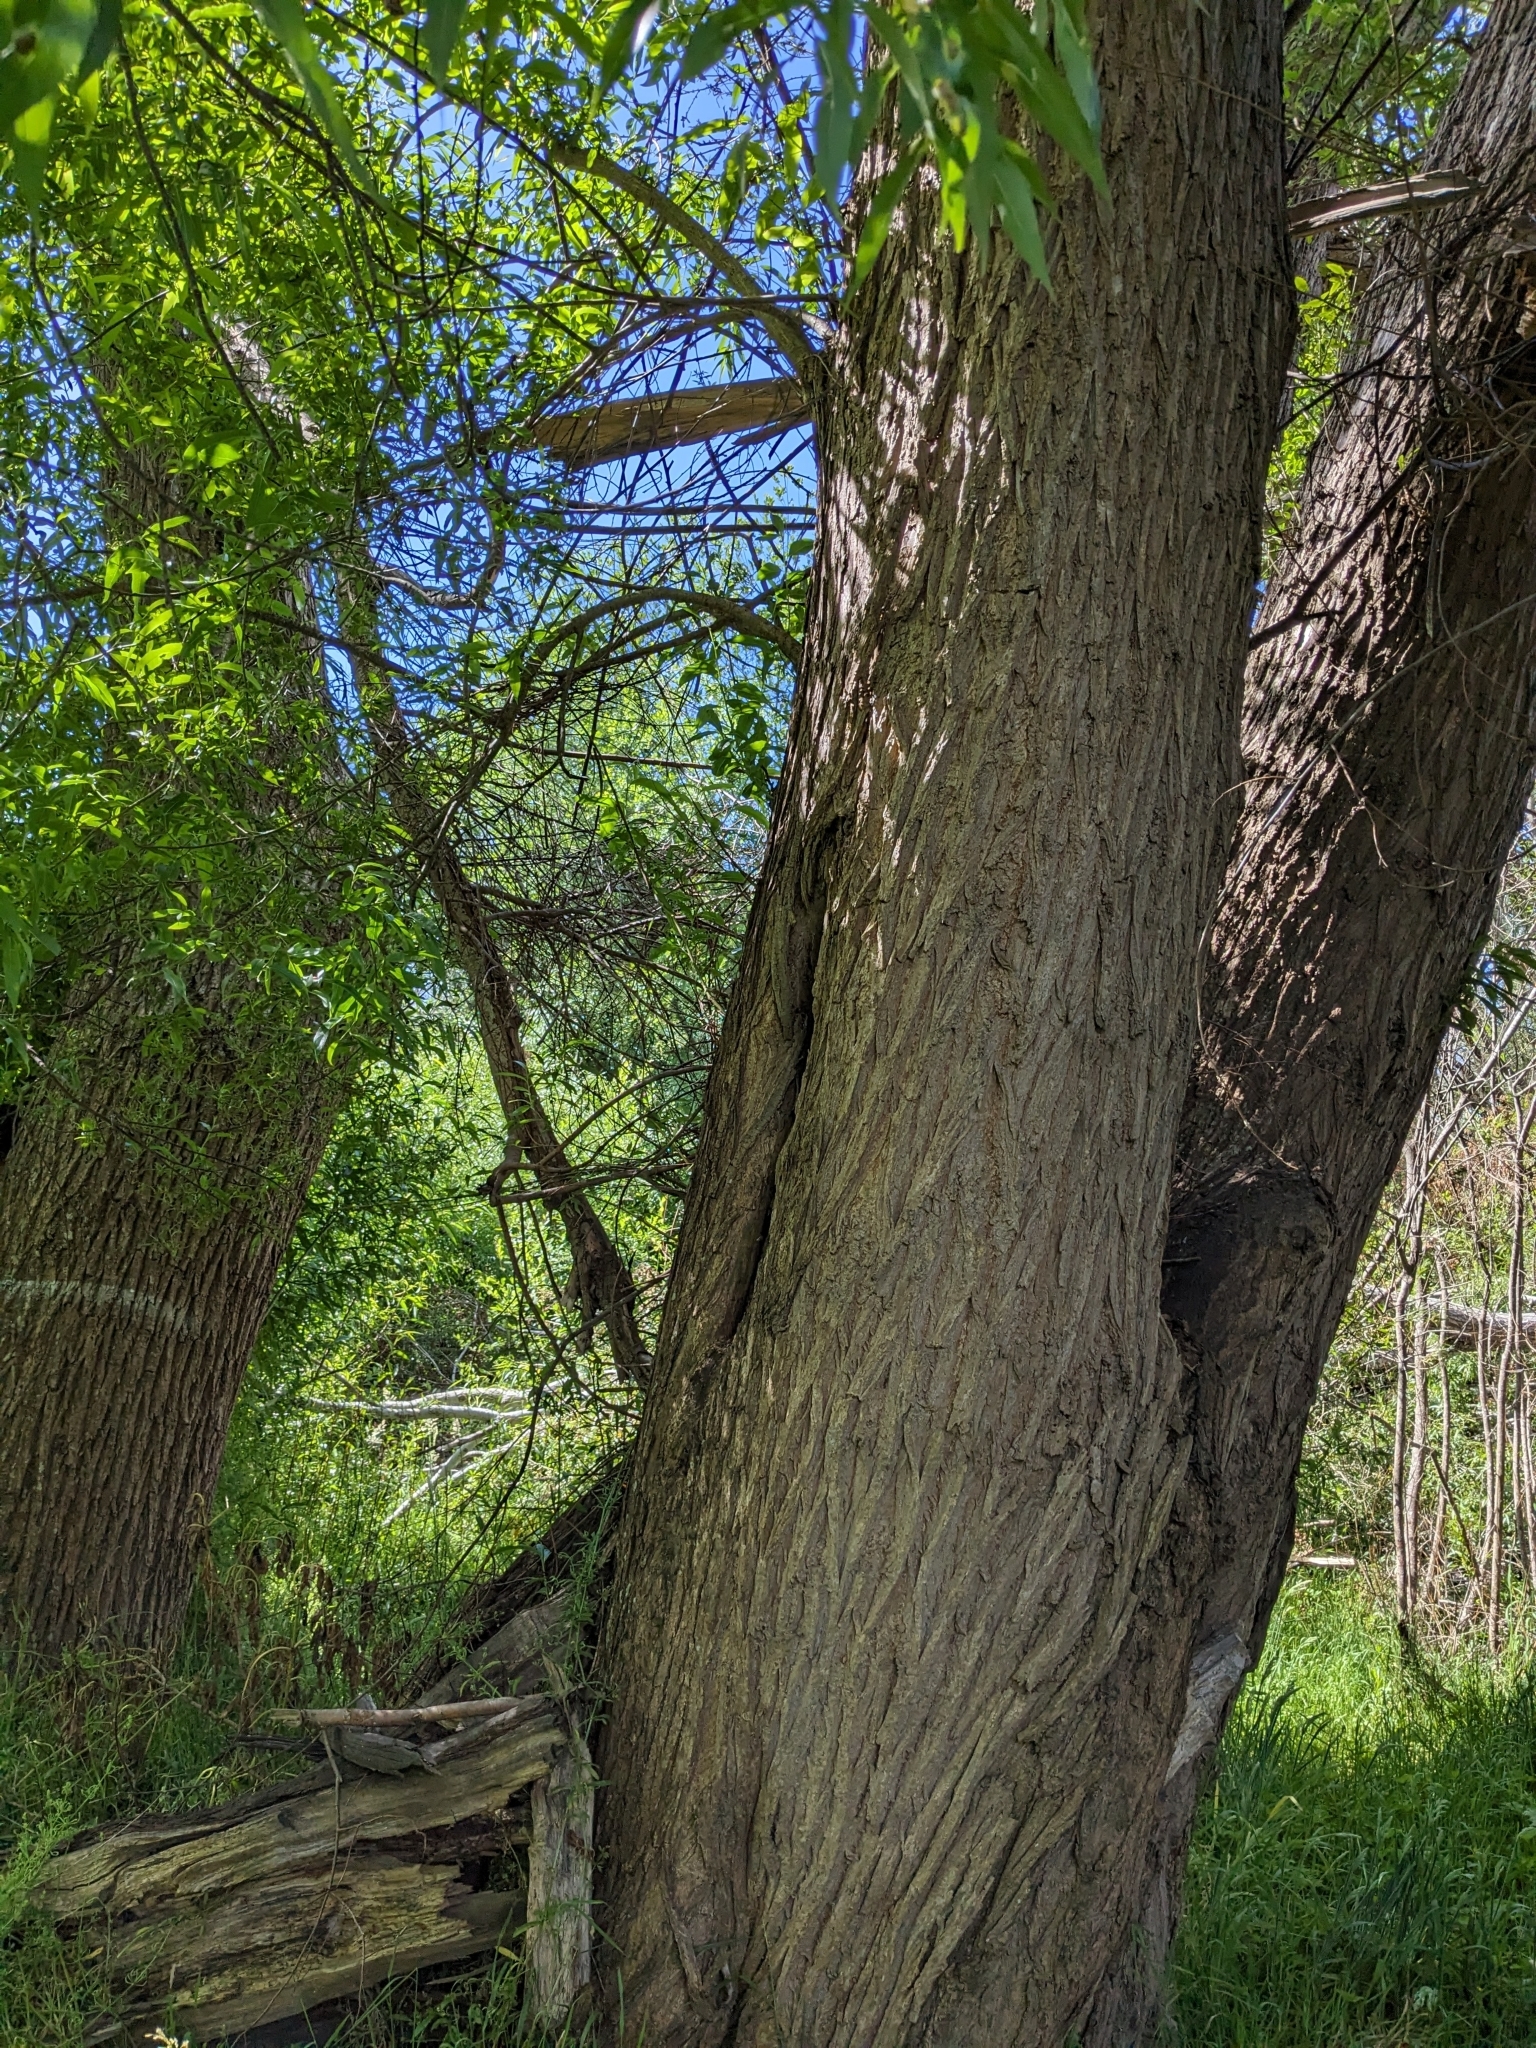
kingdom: Animalia
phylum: Arthropoda
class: Insecta
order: Hymenoptera
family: Apidae
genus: Apis
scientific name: Apis mellifera
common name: Honey bee
